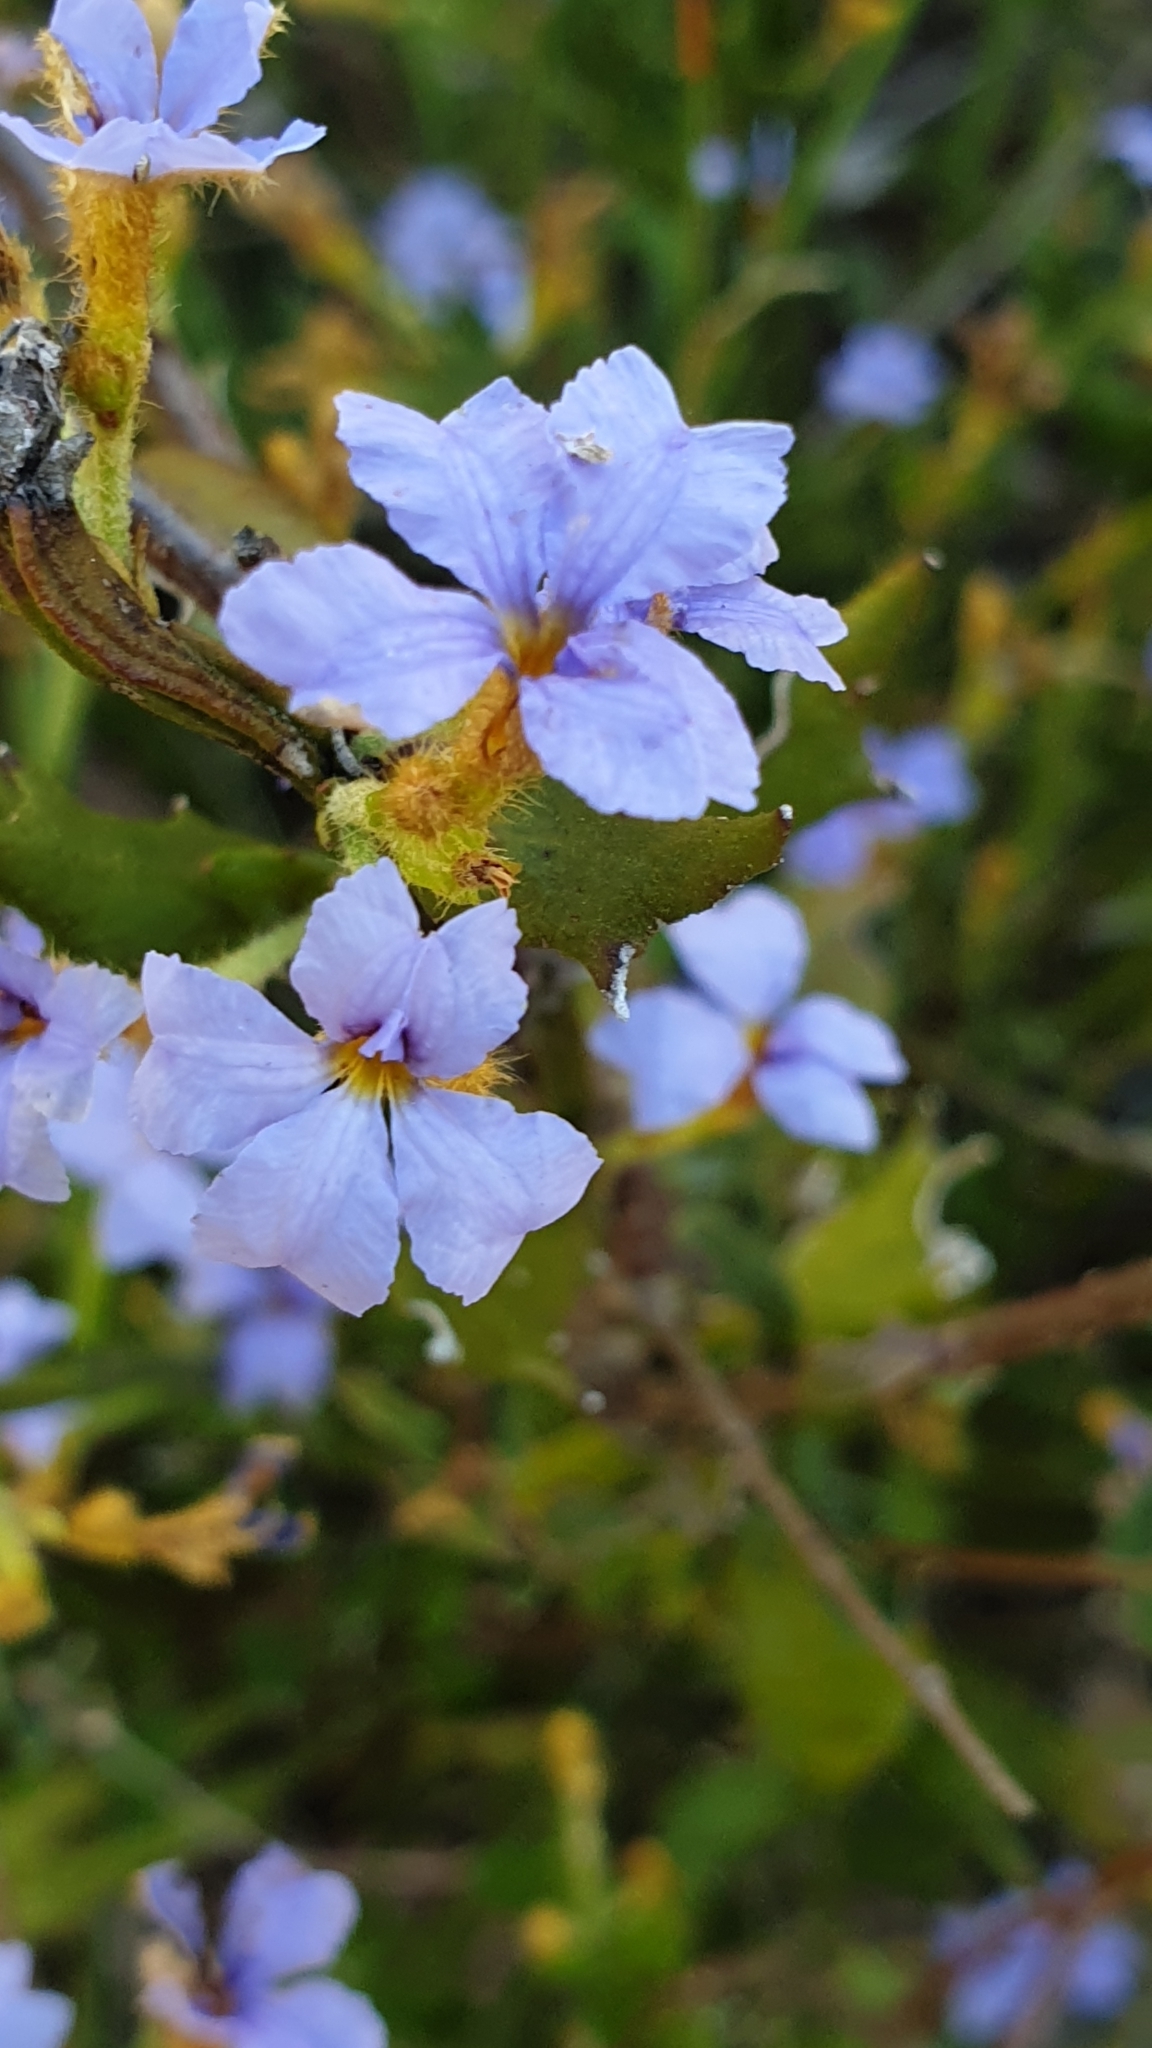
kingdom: Plantae
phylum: Tracheophyta
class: Magnoliopsida
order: Asterales
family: Goodeniaceae
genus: Dampiera
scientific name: Dampiera stricta
